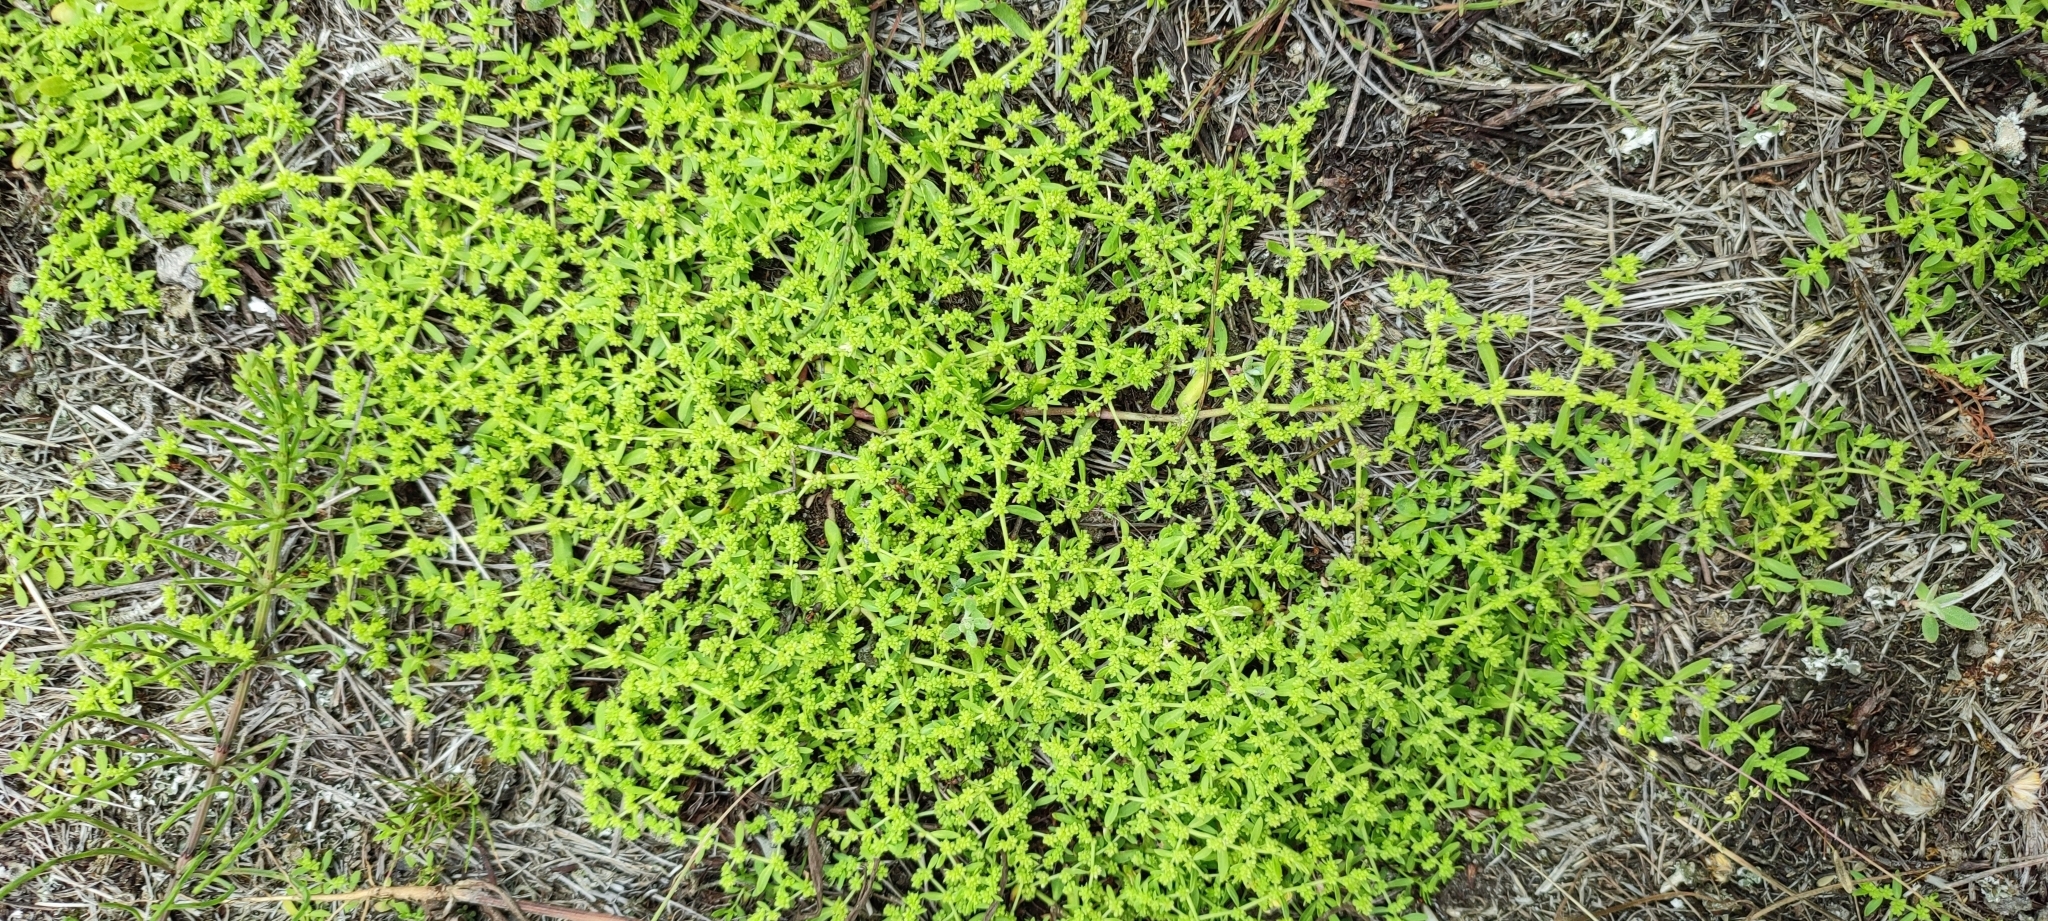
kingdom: Plantae
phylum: Tracheophyta
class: Magnoliopsida
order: Caryophyllales
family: Caryophyllaceae
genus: Herniaria
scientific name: Herniaria polygama
